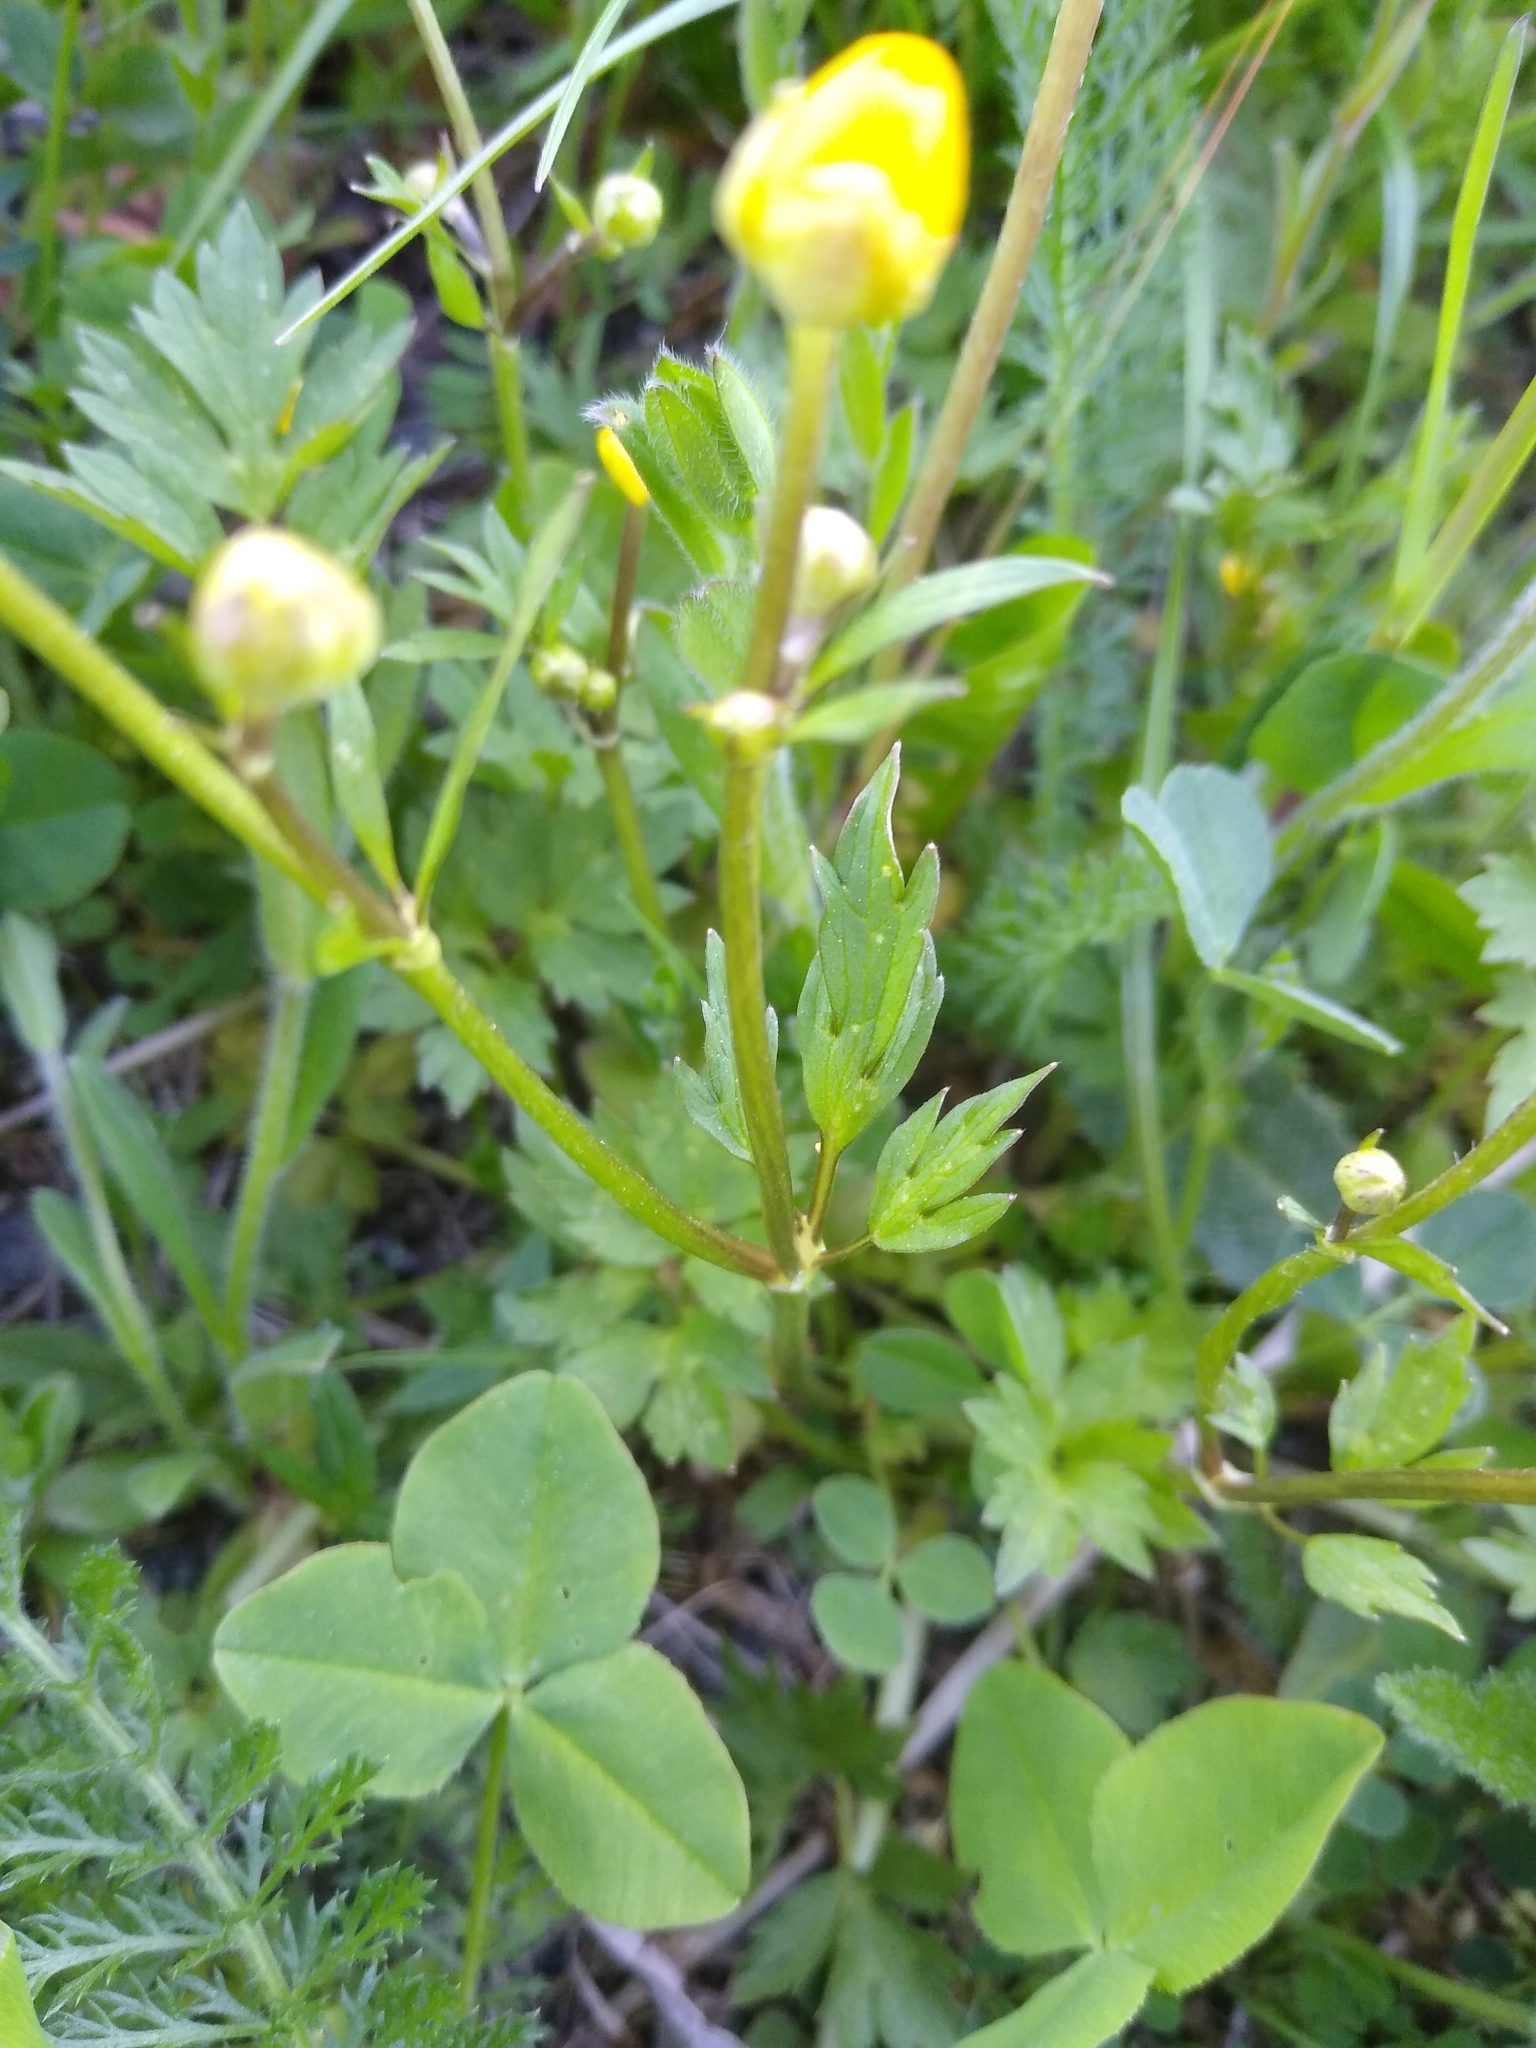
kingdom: Plantae
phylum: Tracheophyta
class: Magnoliopsida
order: Ranunculales
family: Ranunculaceae
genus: Ranunculus
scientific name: Ranunculus repens
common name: Creeping buttercup
